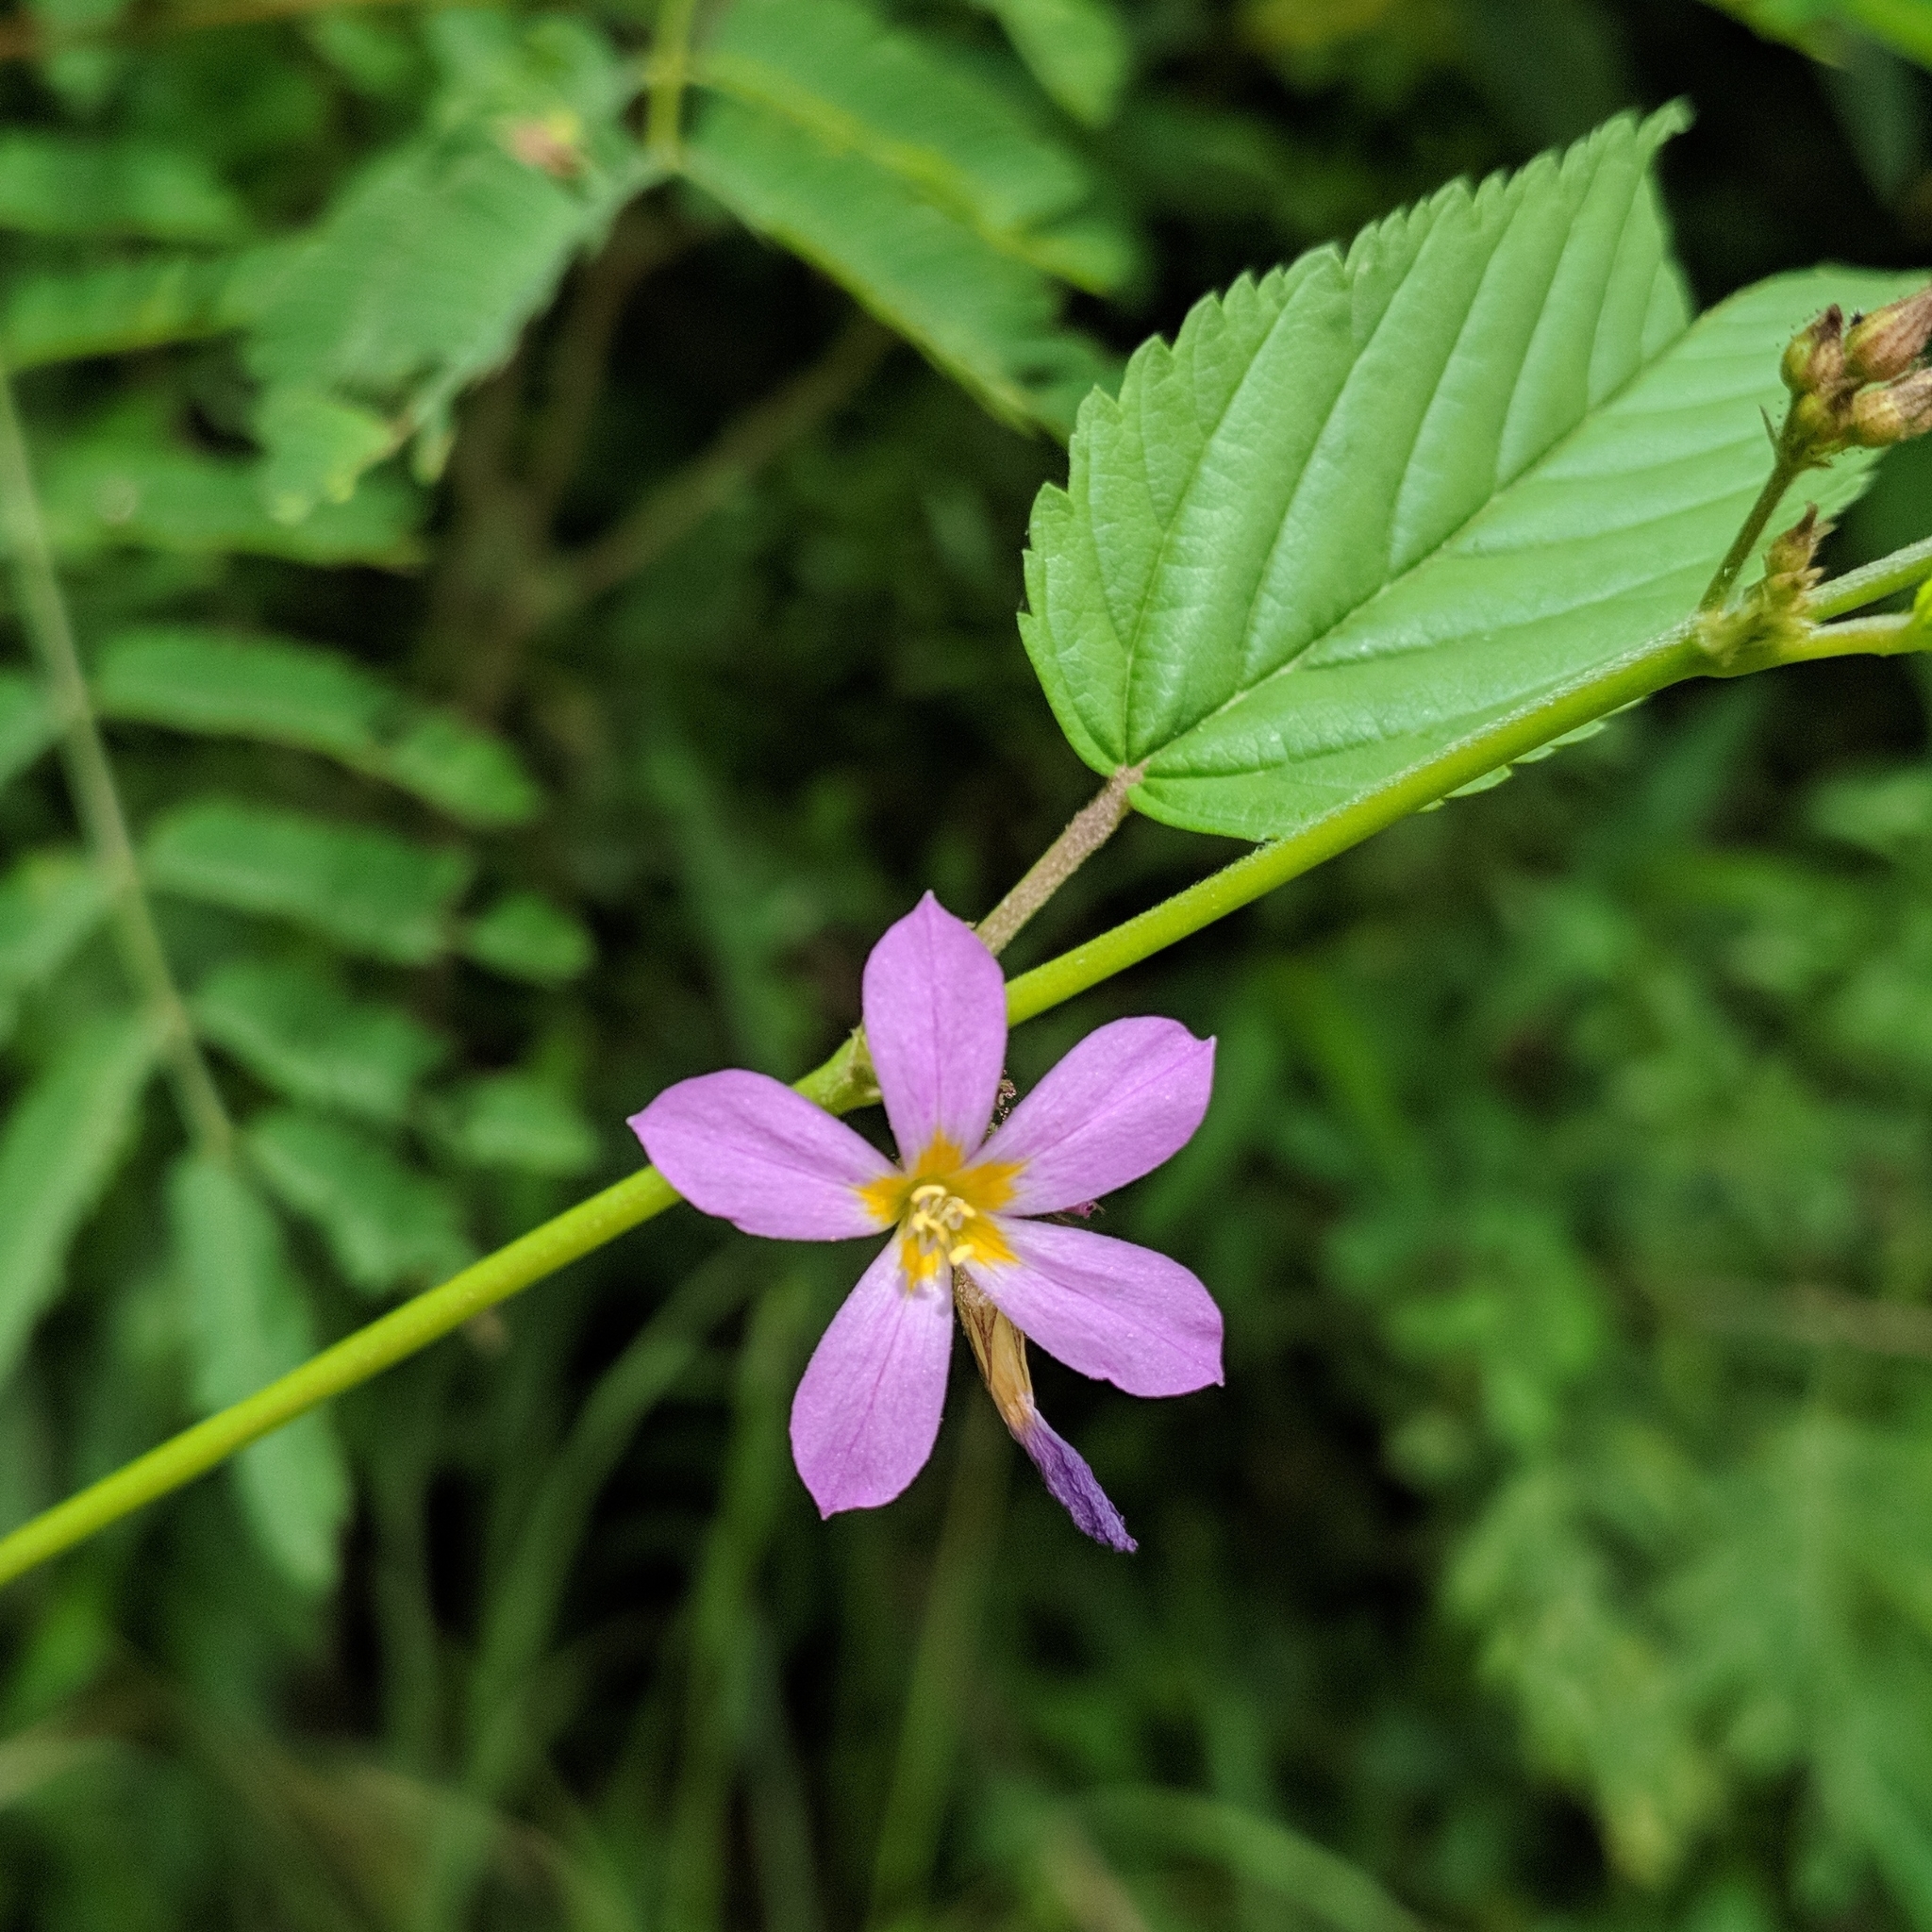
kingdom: Plantae
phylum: Tracheophyta
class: Magnoliopsida
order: Malvales
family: Malvaceae
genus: Melochia
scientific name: Melochia pyramidata
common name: Pyramidflower
